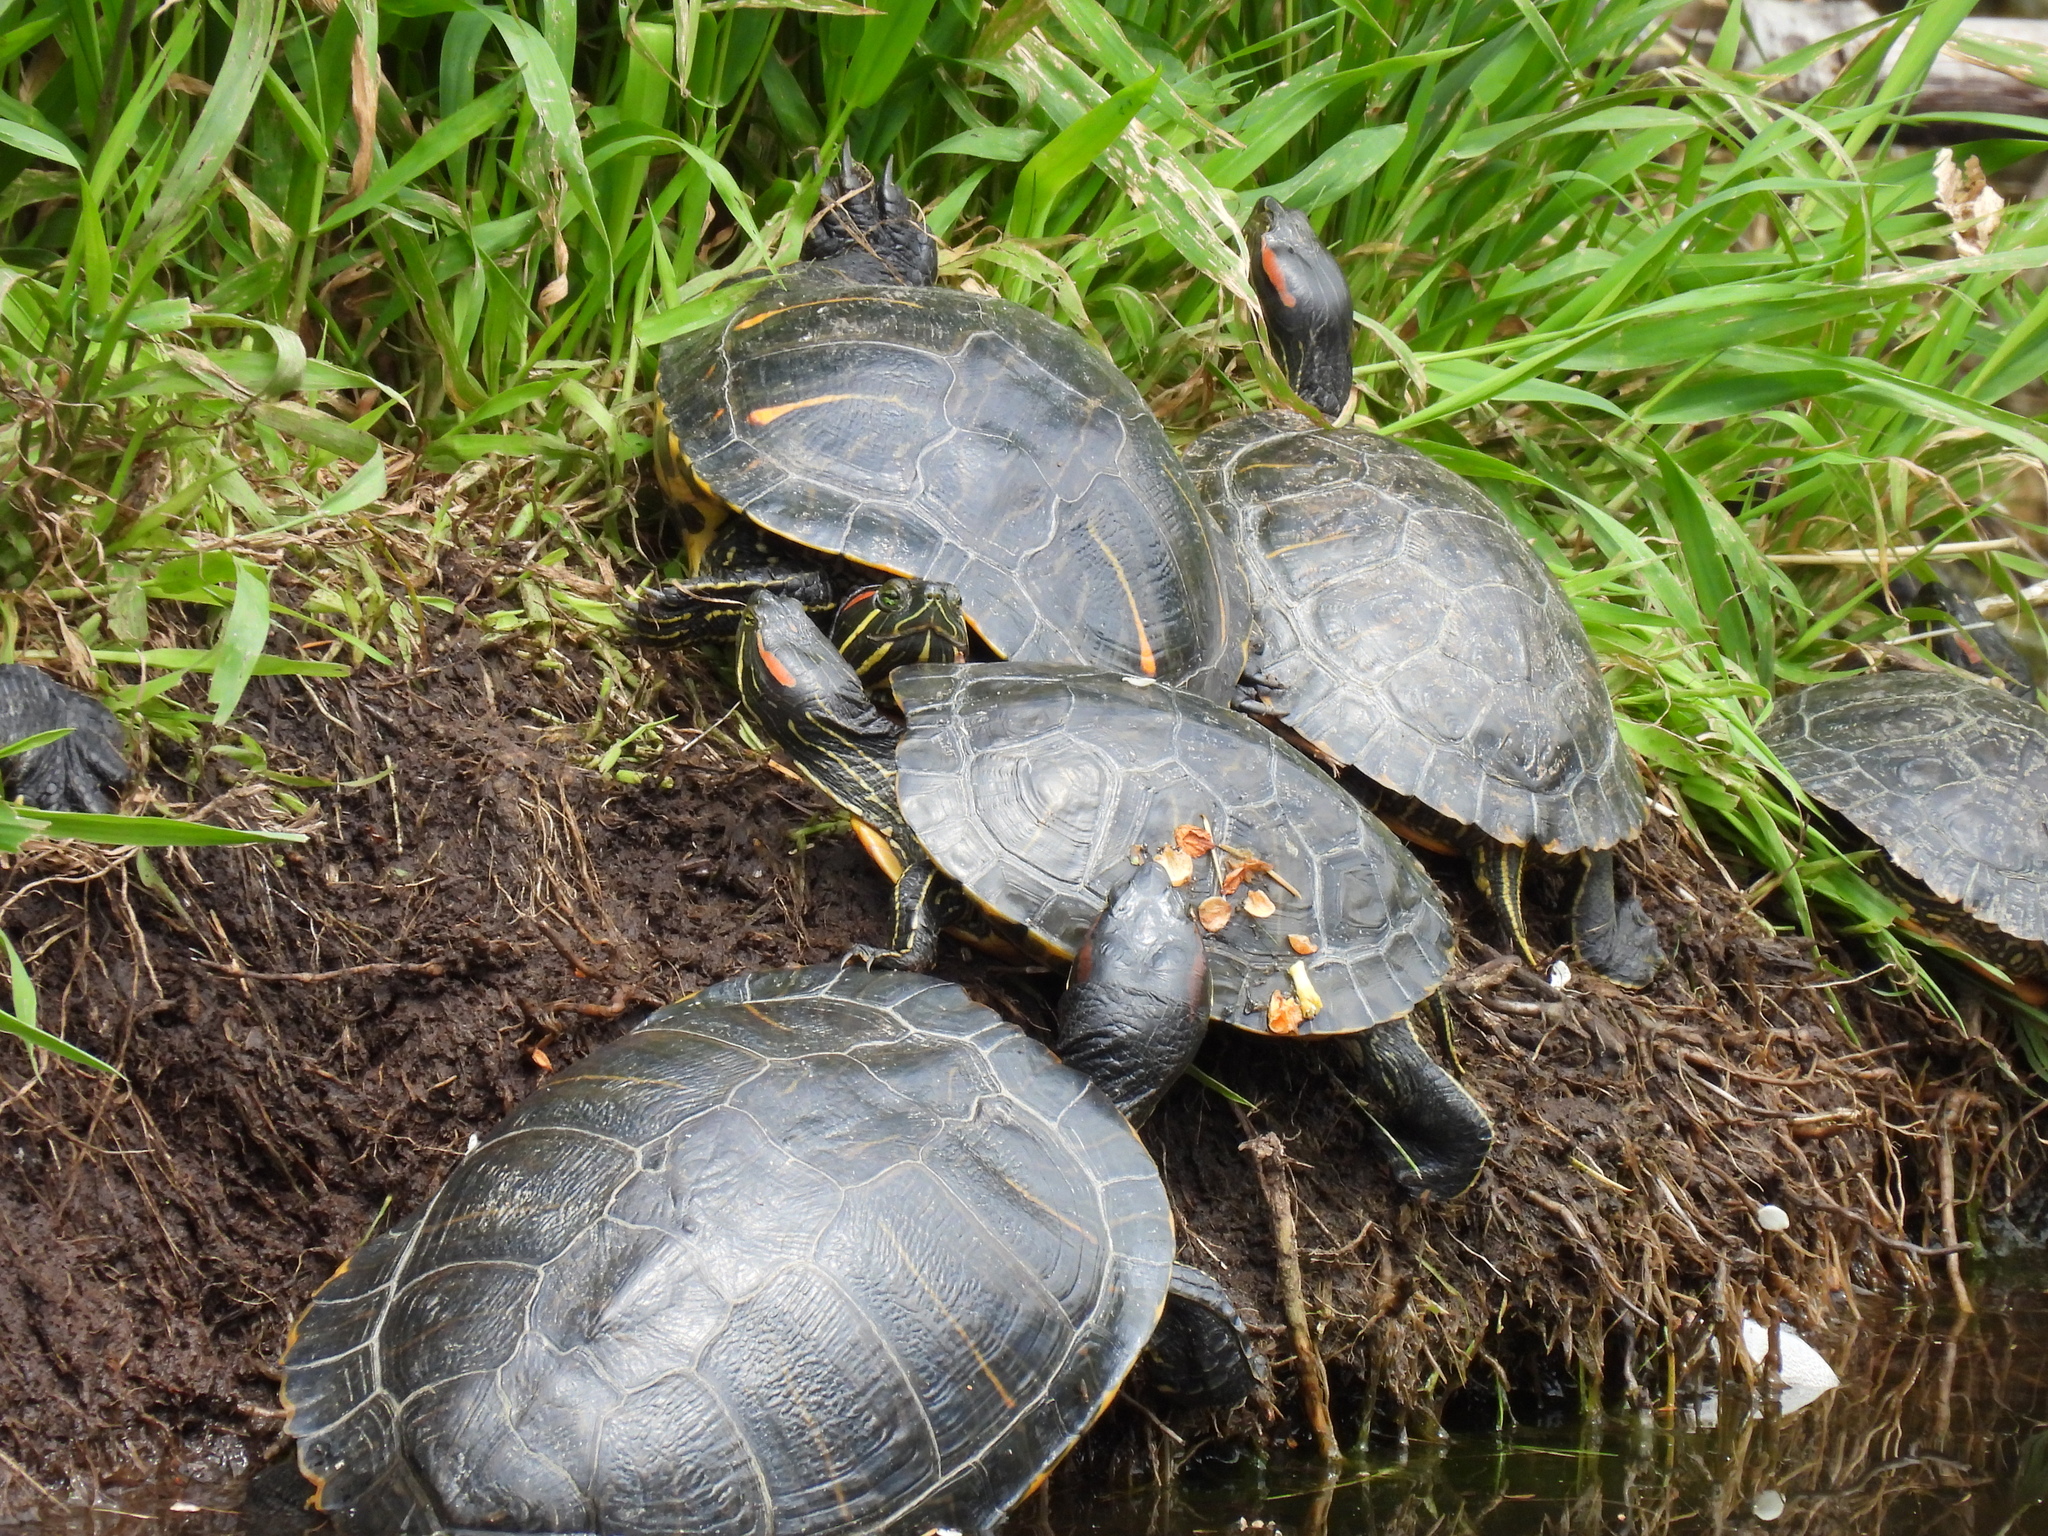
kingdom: Animalia
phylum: Chordata
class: Testudines
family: Emydidae
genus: Trachemys
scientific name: Trachemys scripta
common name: Slider
